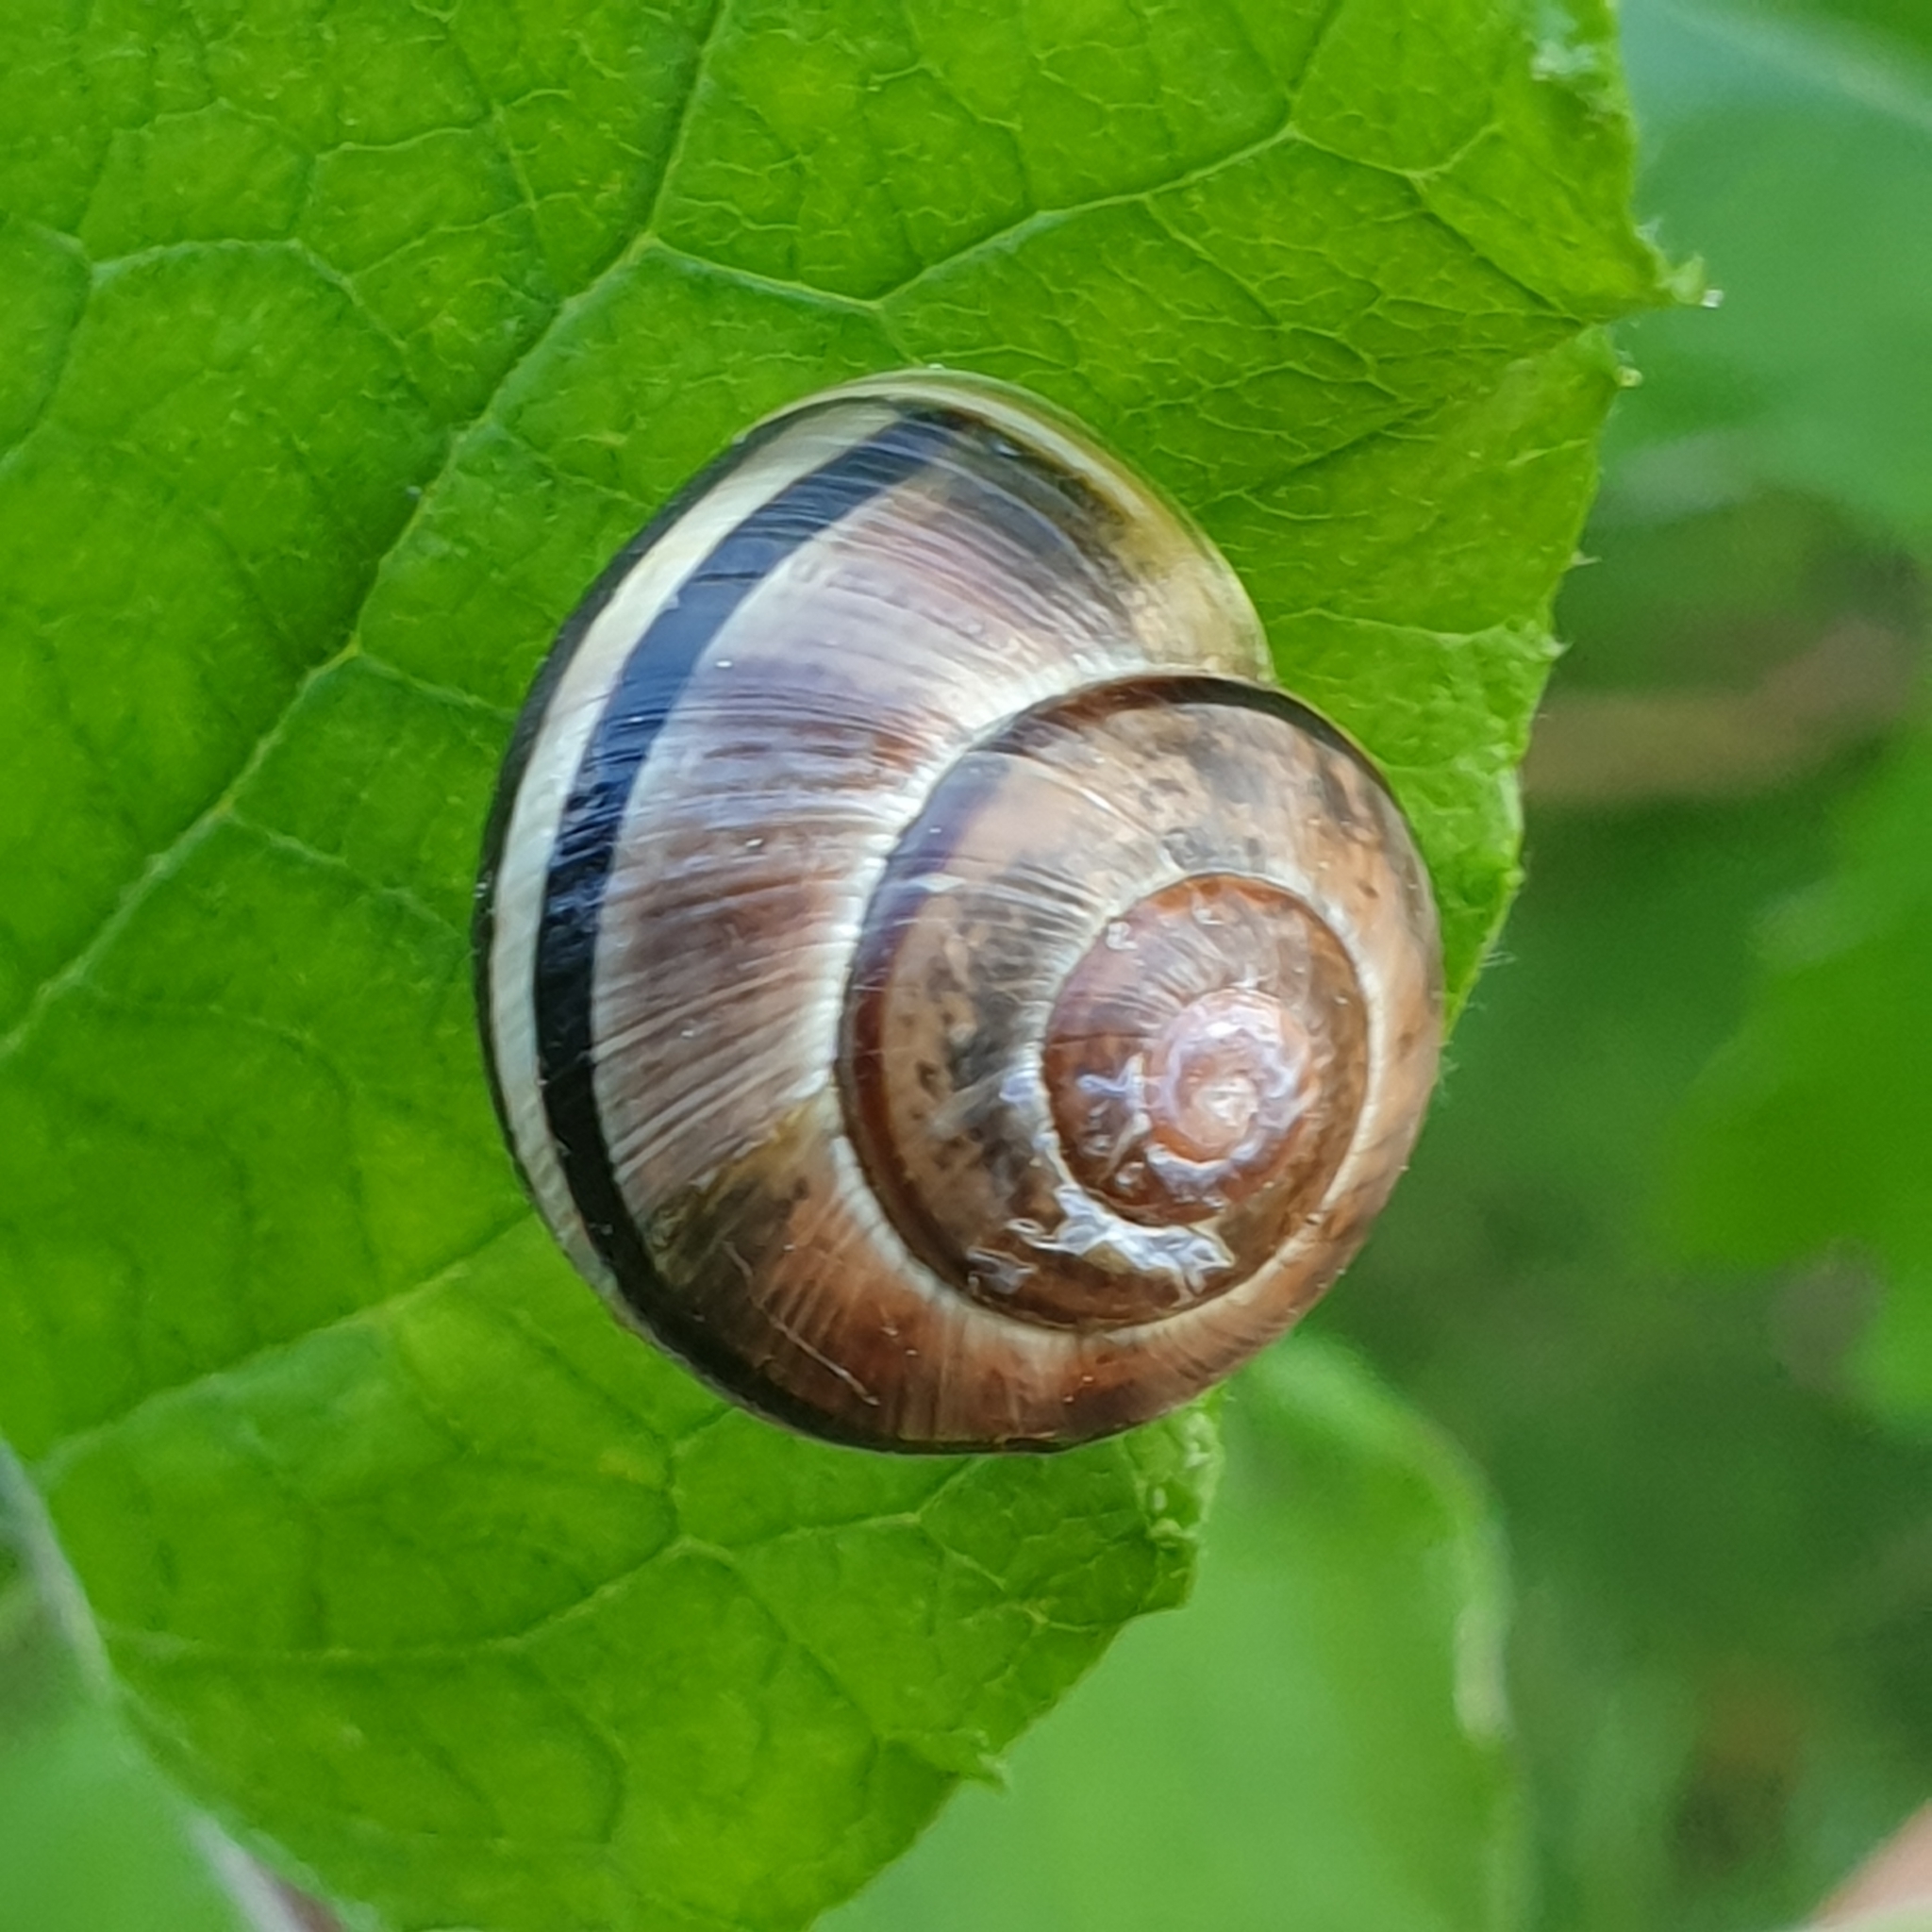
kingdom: Animalia
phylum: Mollusca
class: Gastropoda
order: Stylommatophora
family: Helicidae
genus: Cepaea
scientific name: Cepaea nemoralis
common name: Grovesnail
